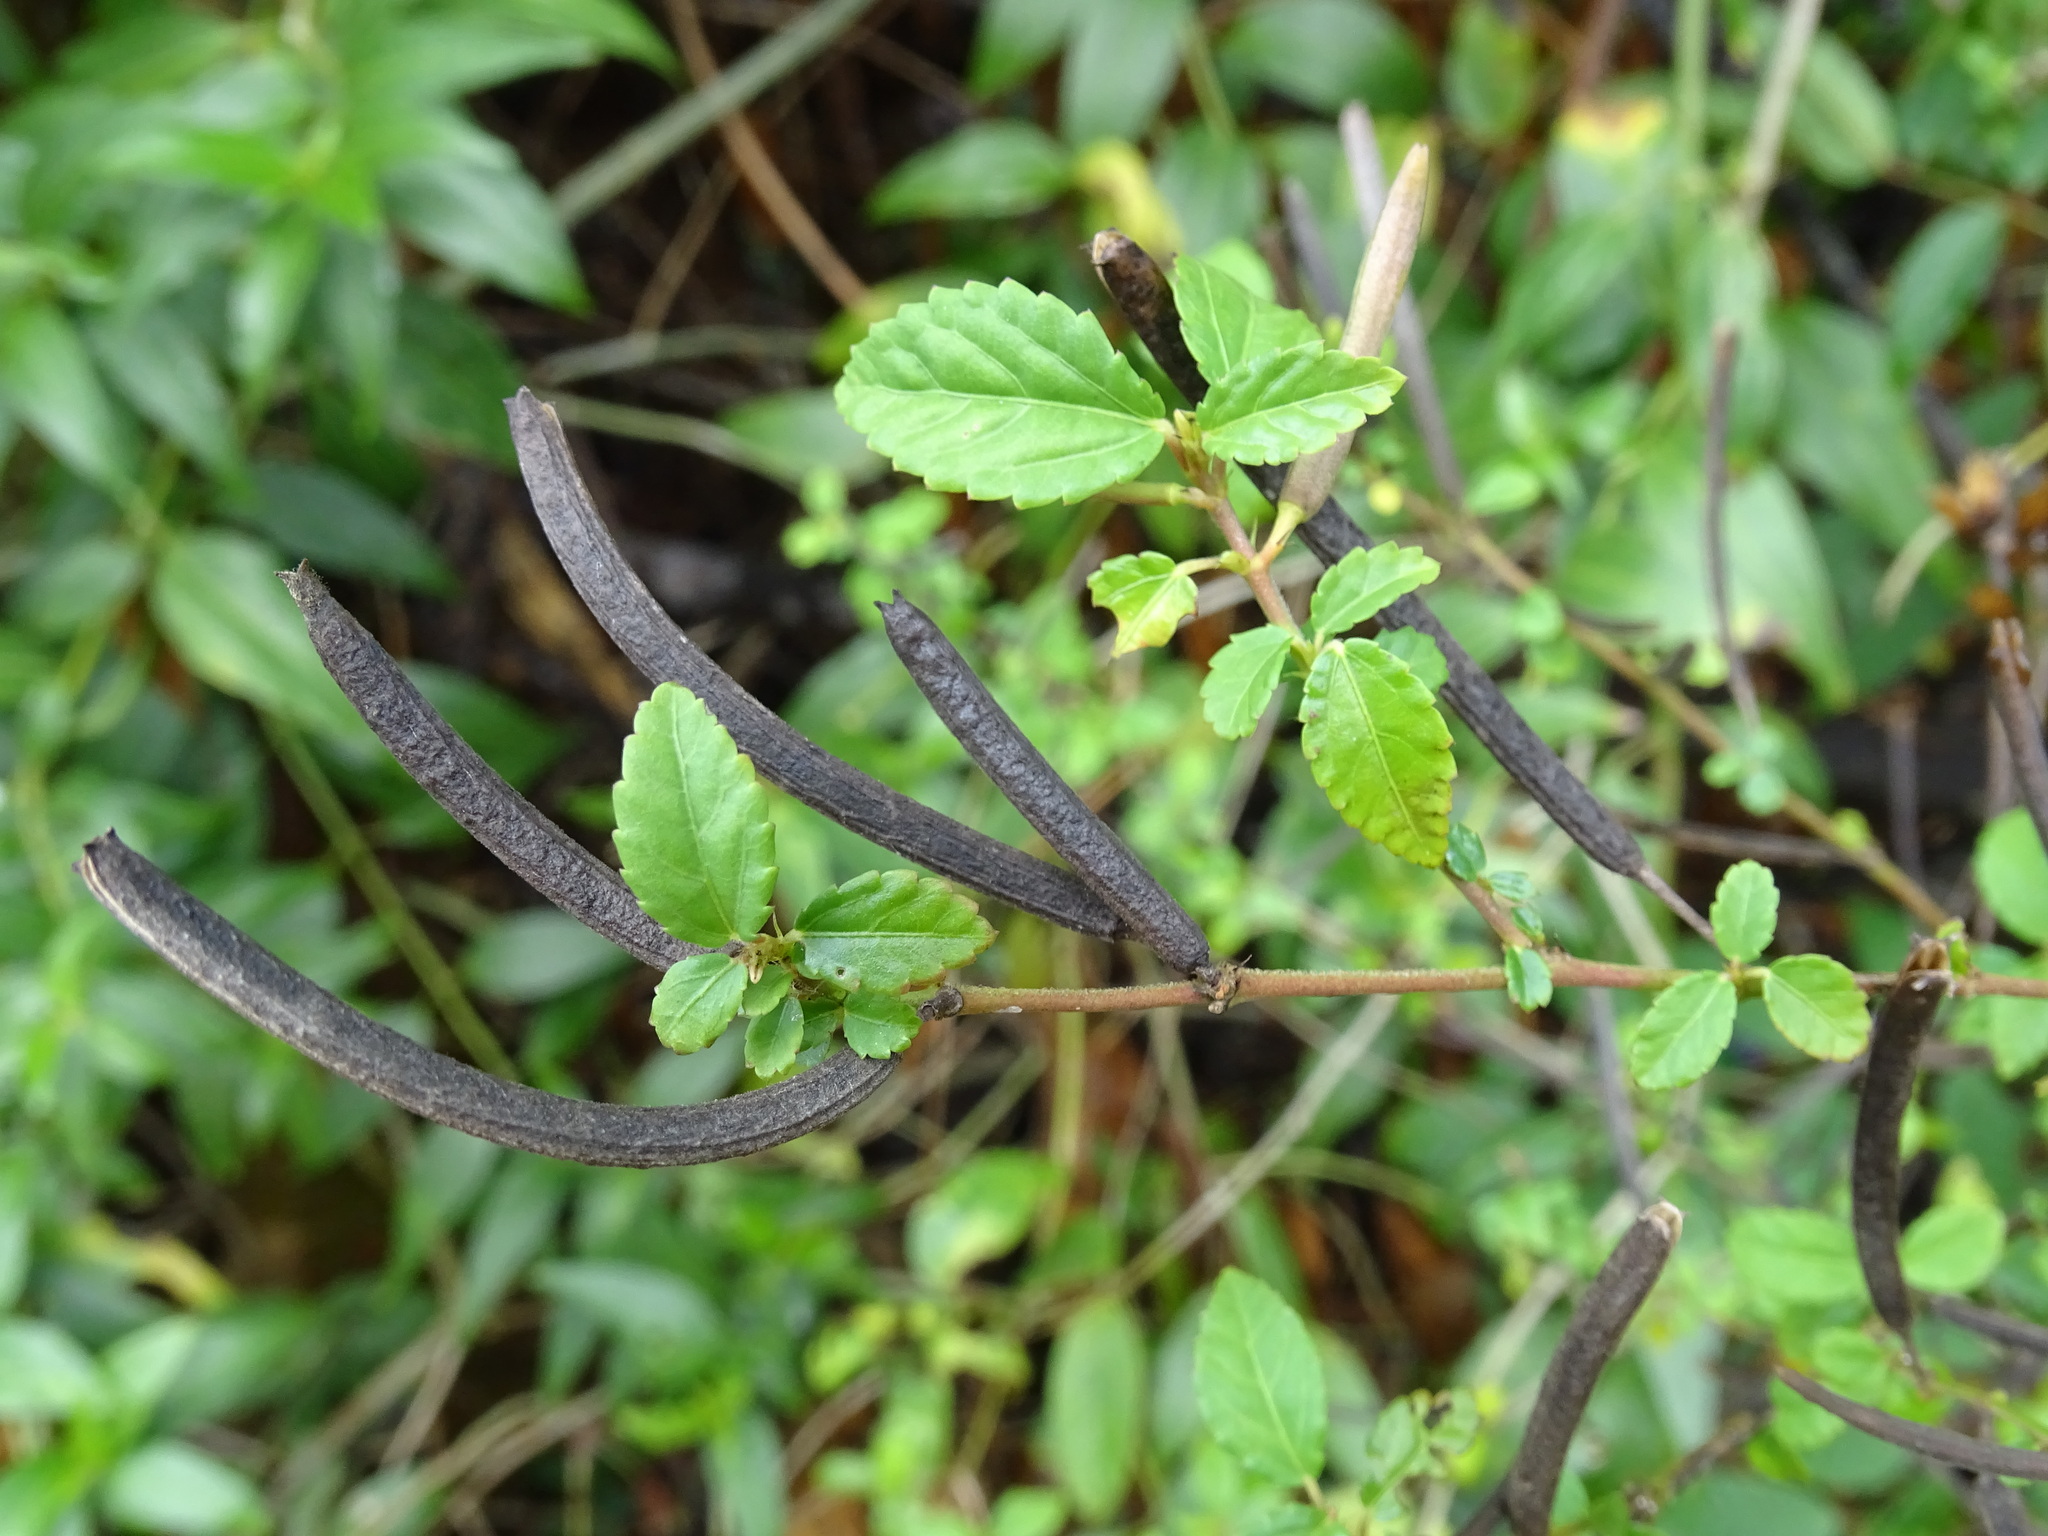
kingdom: Plantae
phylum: Tracheophyta
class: Magnoliopsida
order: Malvales
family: Malvaceae
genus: Corchorus
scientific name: Corchorus siliquosus
